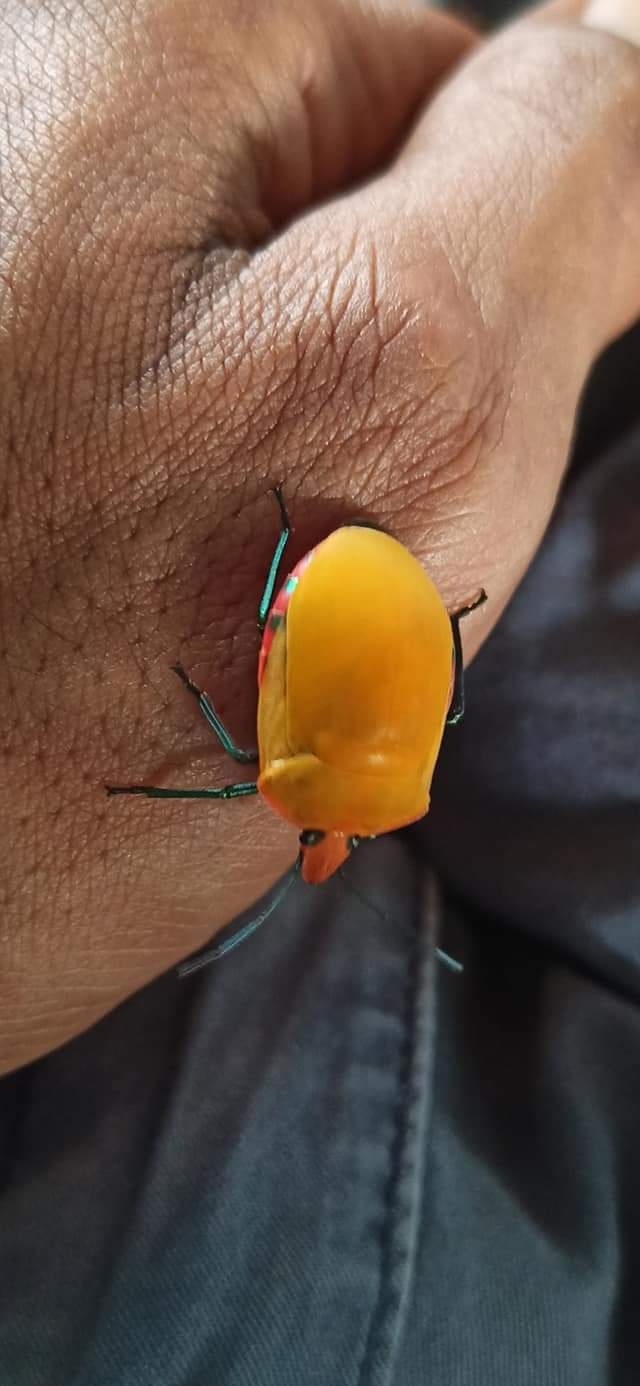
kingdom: Animalia
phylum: Arthropoda
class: Insecta
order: Hemiptera
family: Scutelleridae
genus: Tectocoris
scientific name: Tectocoris diophthalmus
